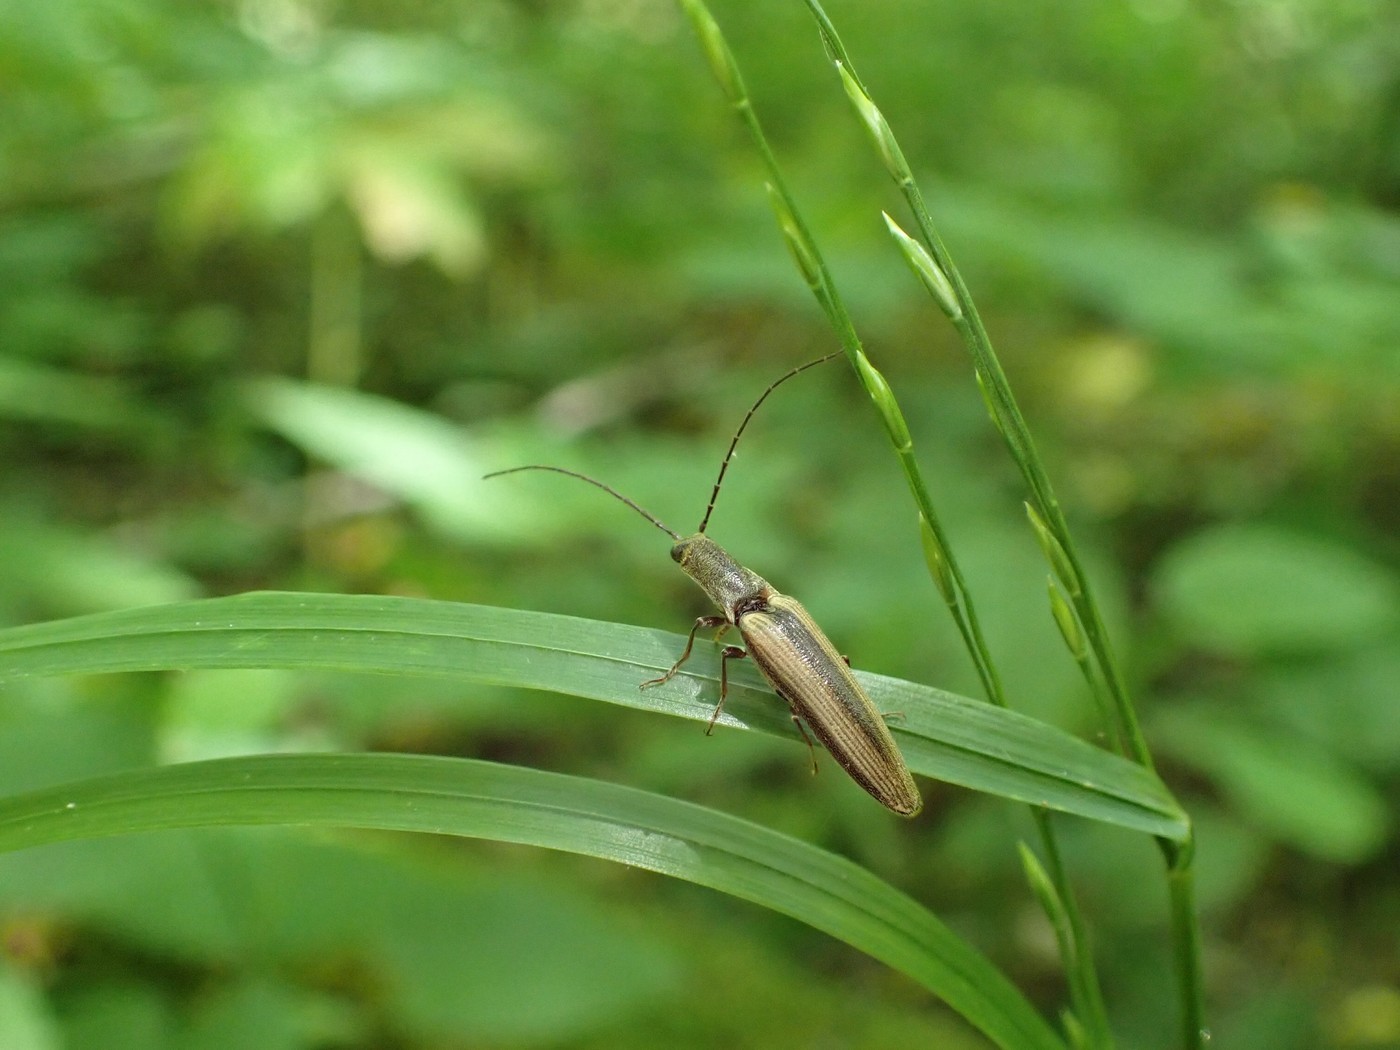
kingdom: Animalia
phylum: Arthropoda
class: Insecta
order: Coleoptera
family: Elateridae
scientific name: Elateridae
